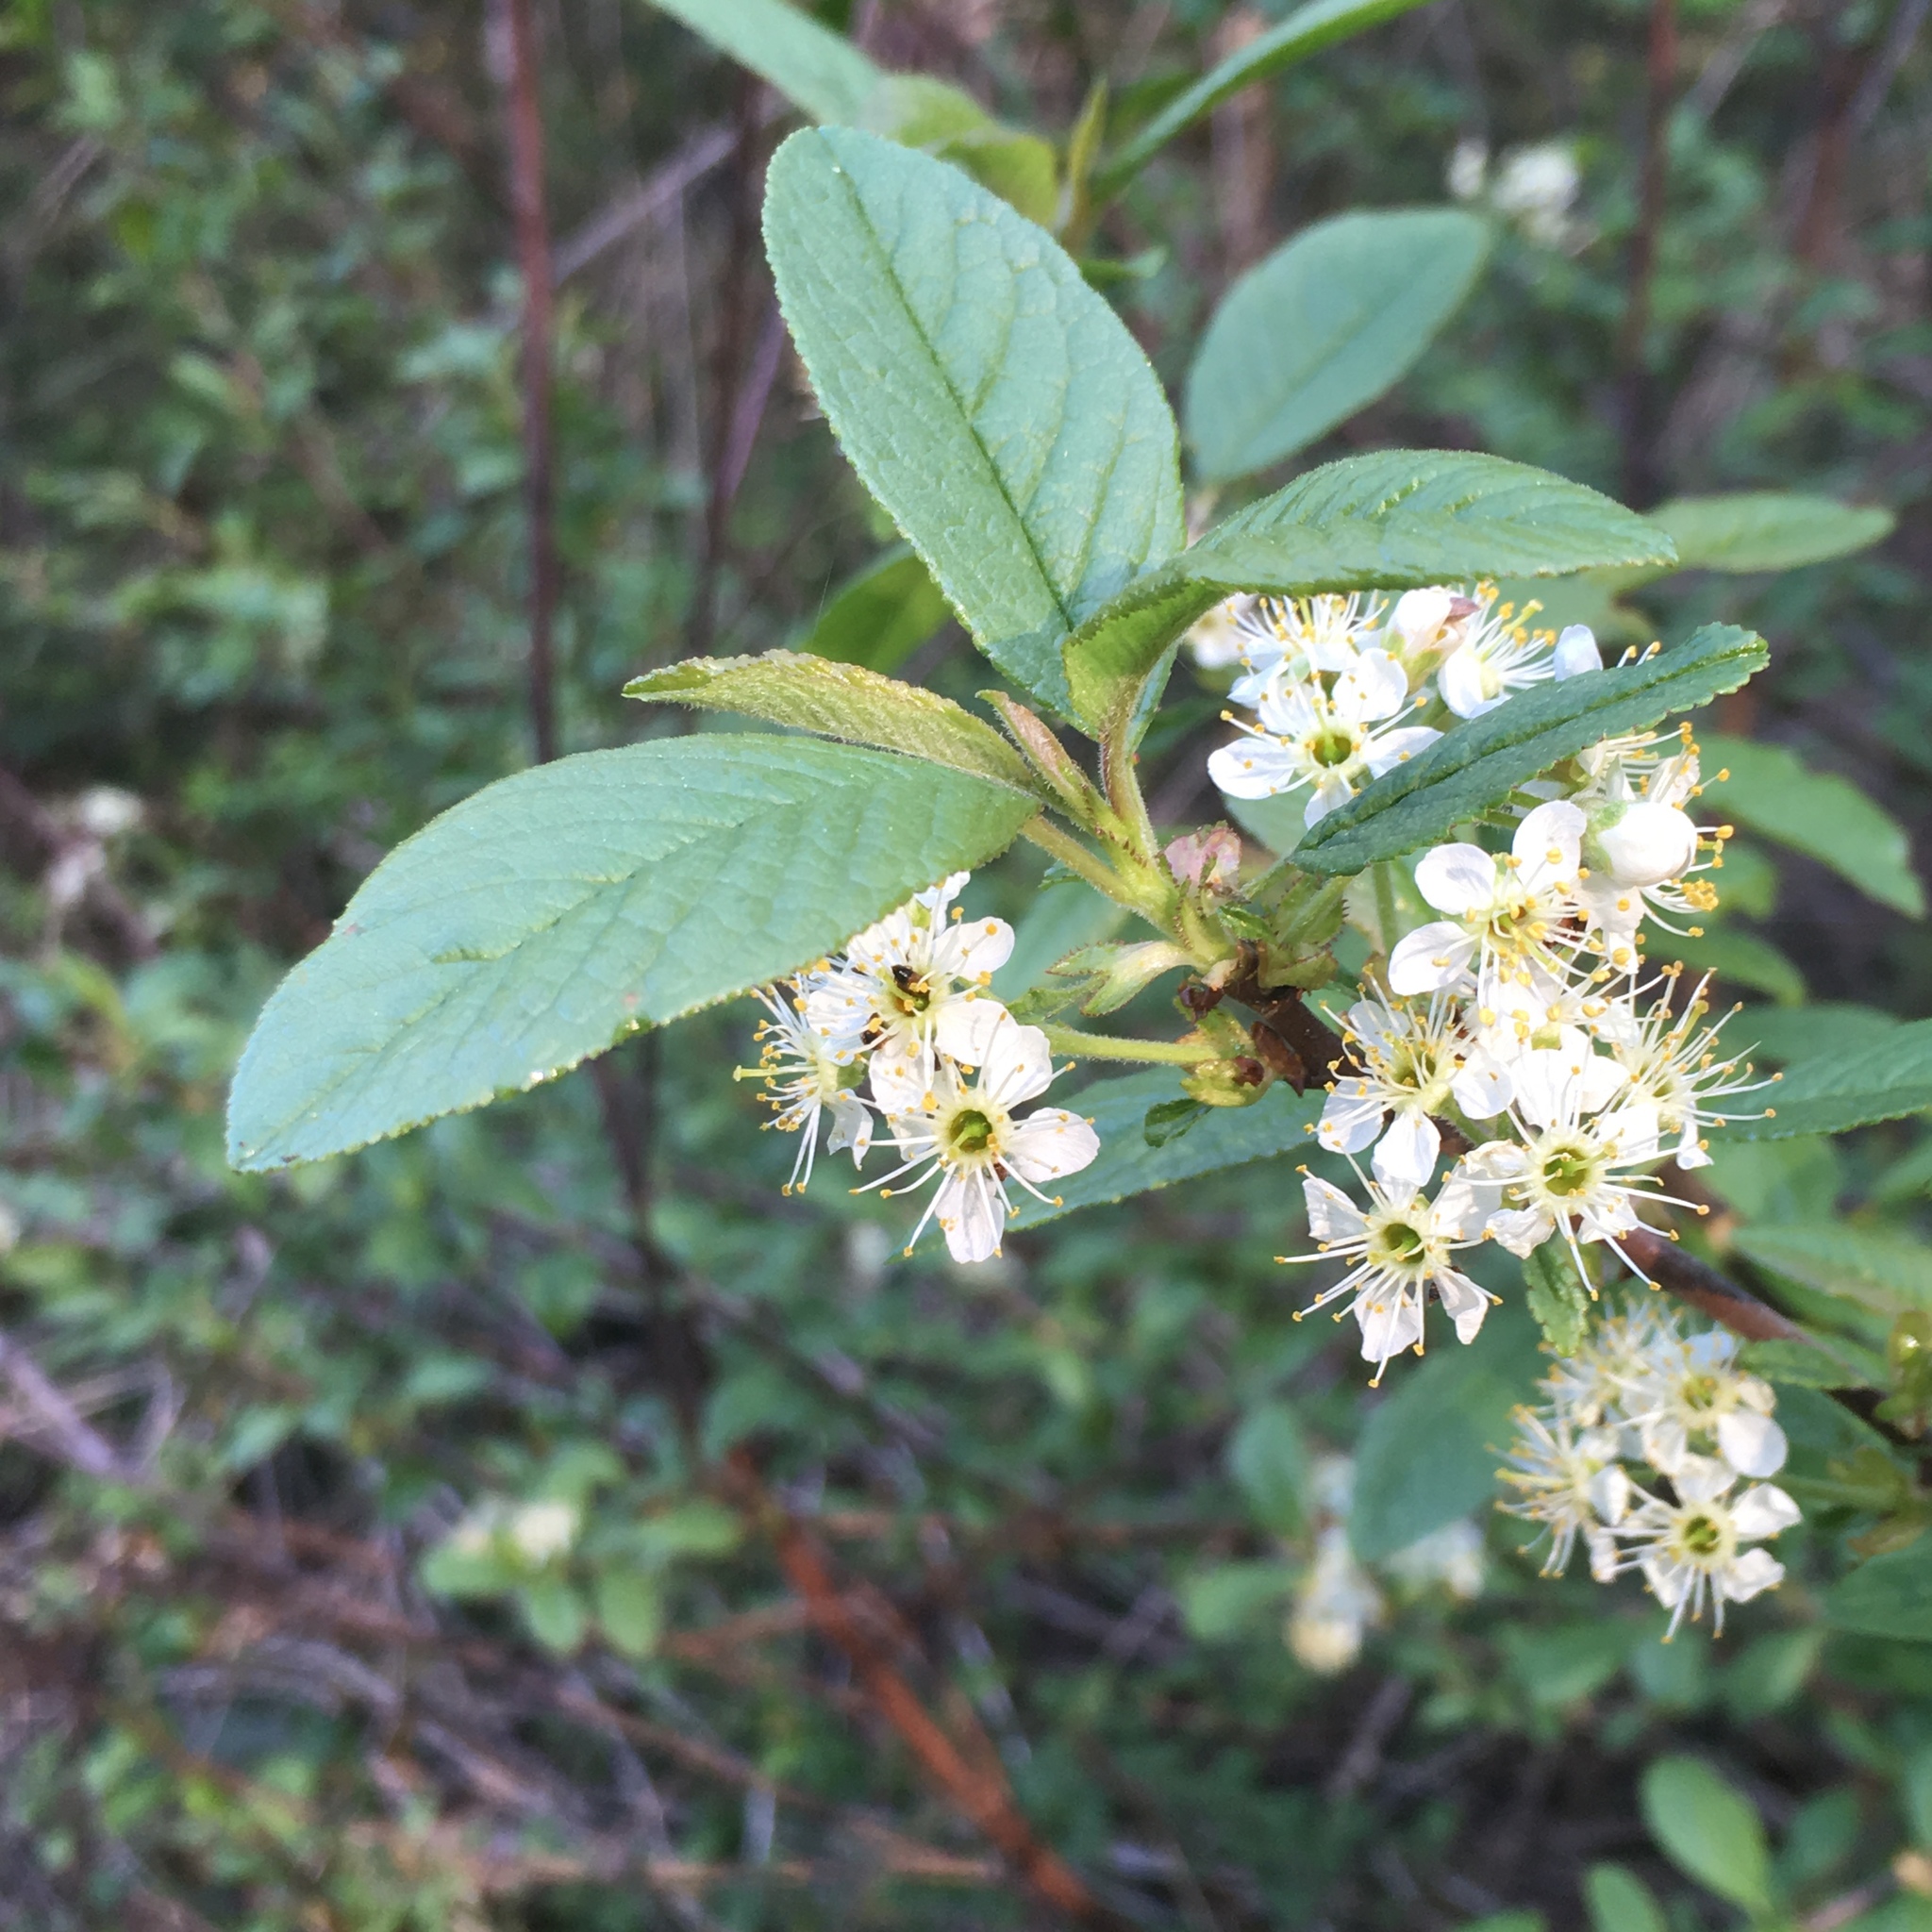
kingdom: Plantae
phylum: Tracheophyta
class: Magnoliopsida
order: Rosales
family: Rosaceae
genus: Prunus
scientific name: Prunus emarginata
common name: Bitter cherry
